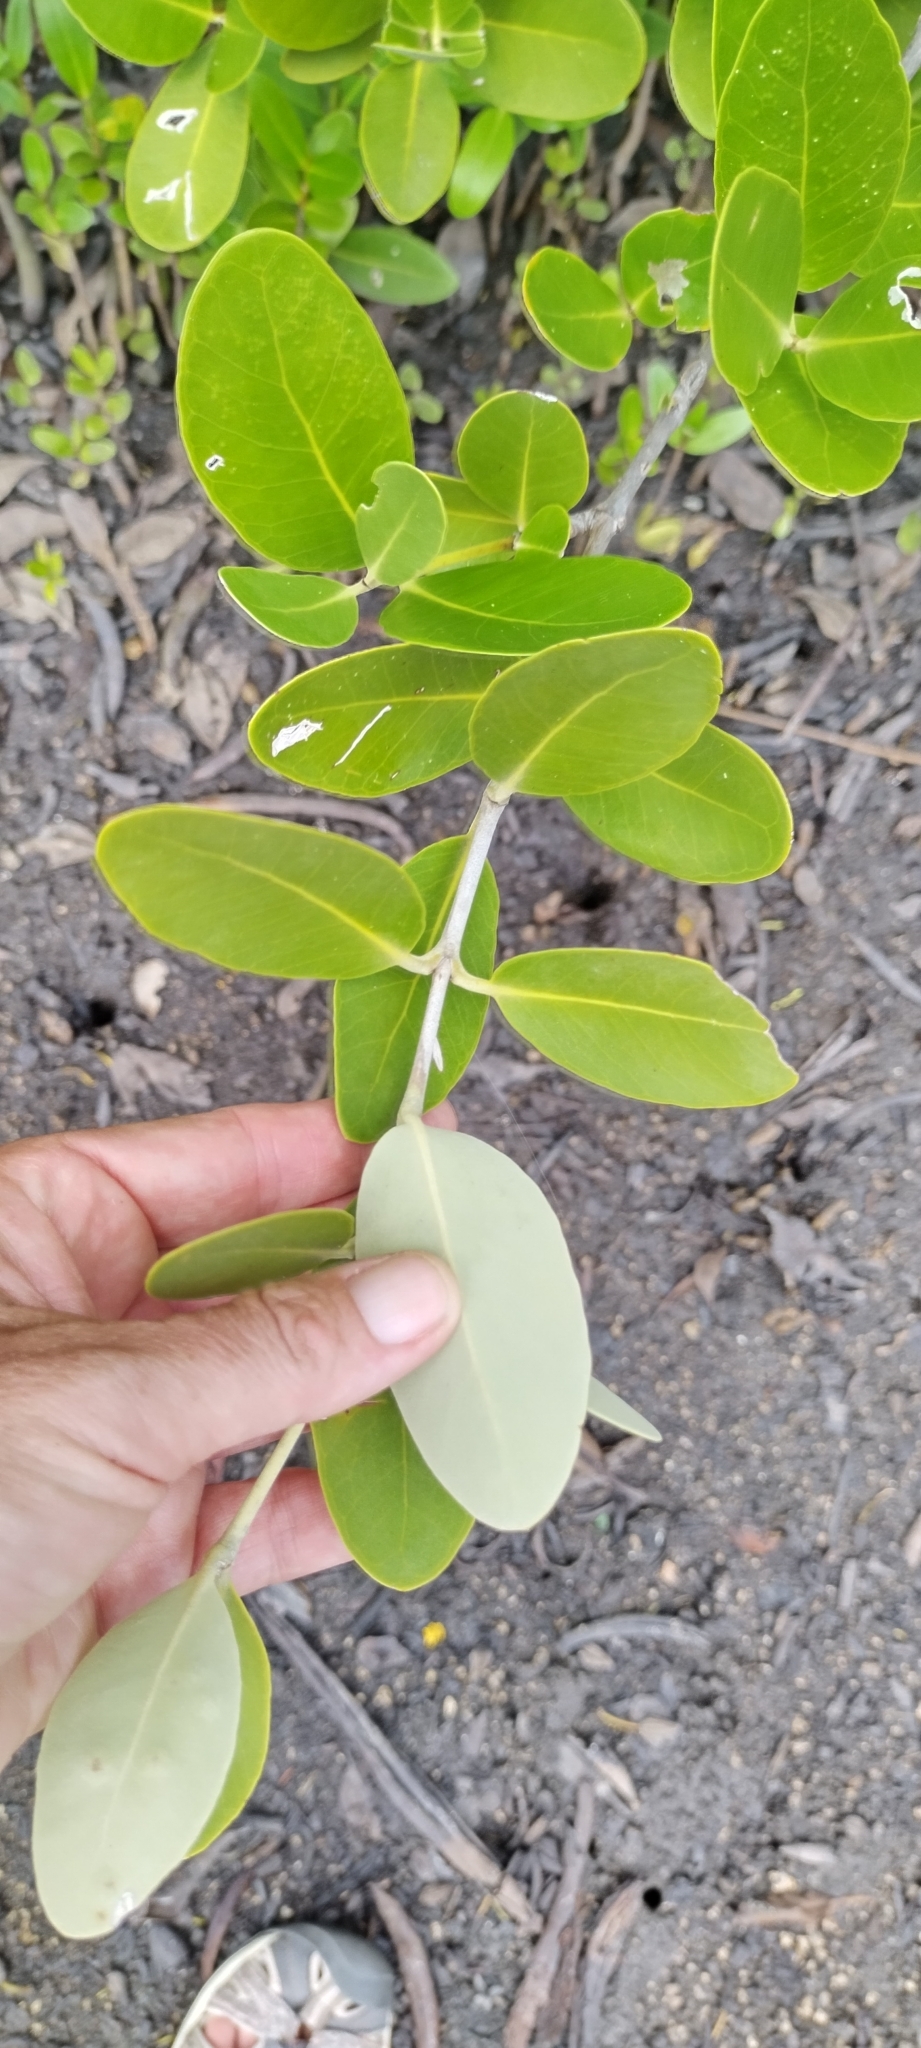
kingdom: Plantae
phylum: Tracheophyta
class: Magnoliopsida
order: Lamiales
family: Acanthaceae
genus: Avicennia
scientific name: Avicennia germinans
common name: Black mangrove
